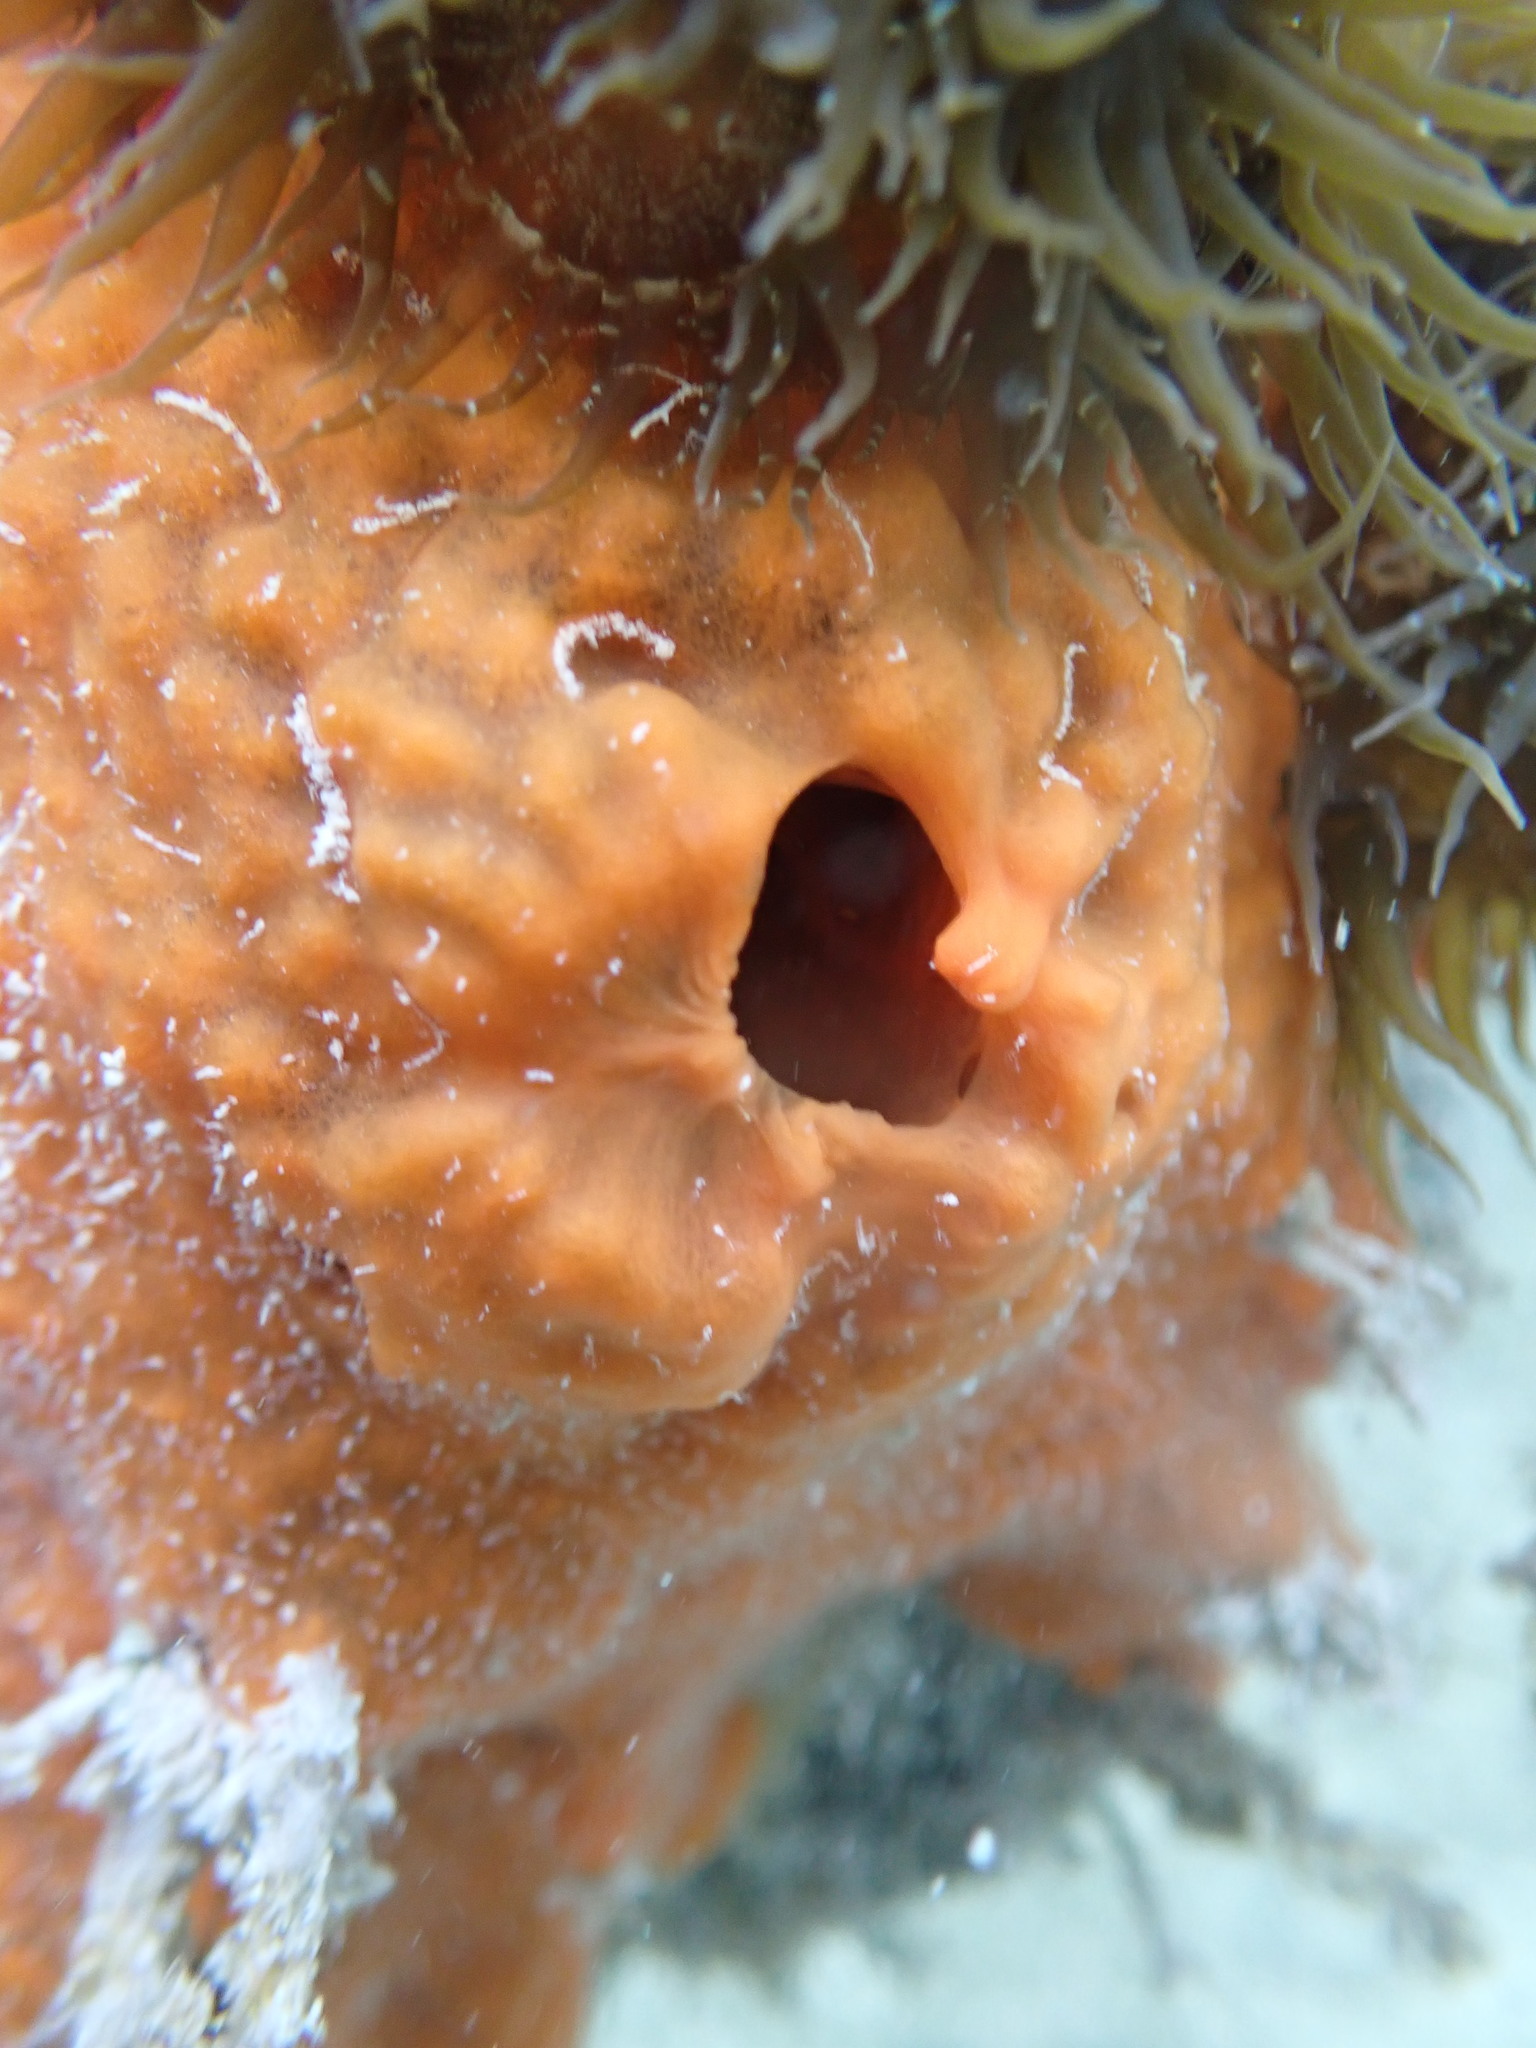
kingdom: Animalia
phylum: Porifera
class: Demospongiae
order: Poecilosclerida
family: Tedaniidae
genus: Tedania
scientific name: Tedania ignis
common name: Sponge
